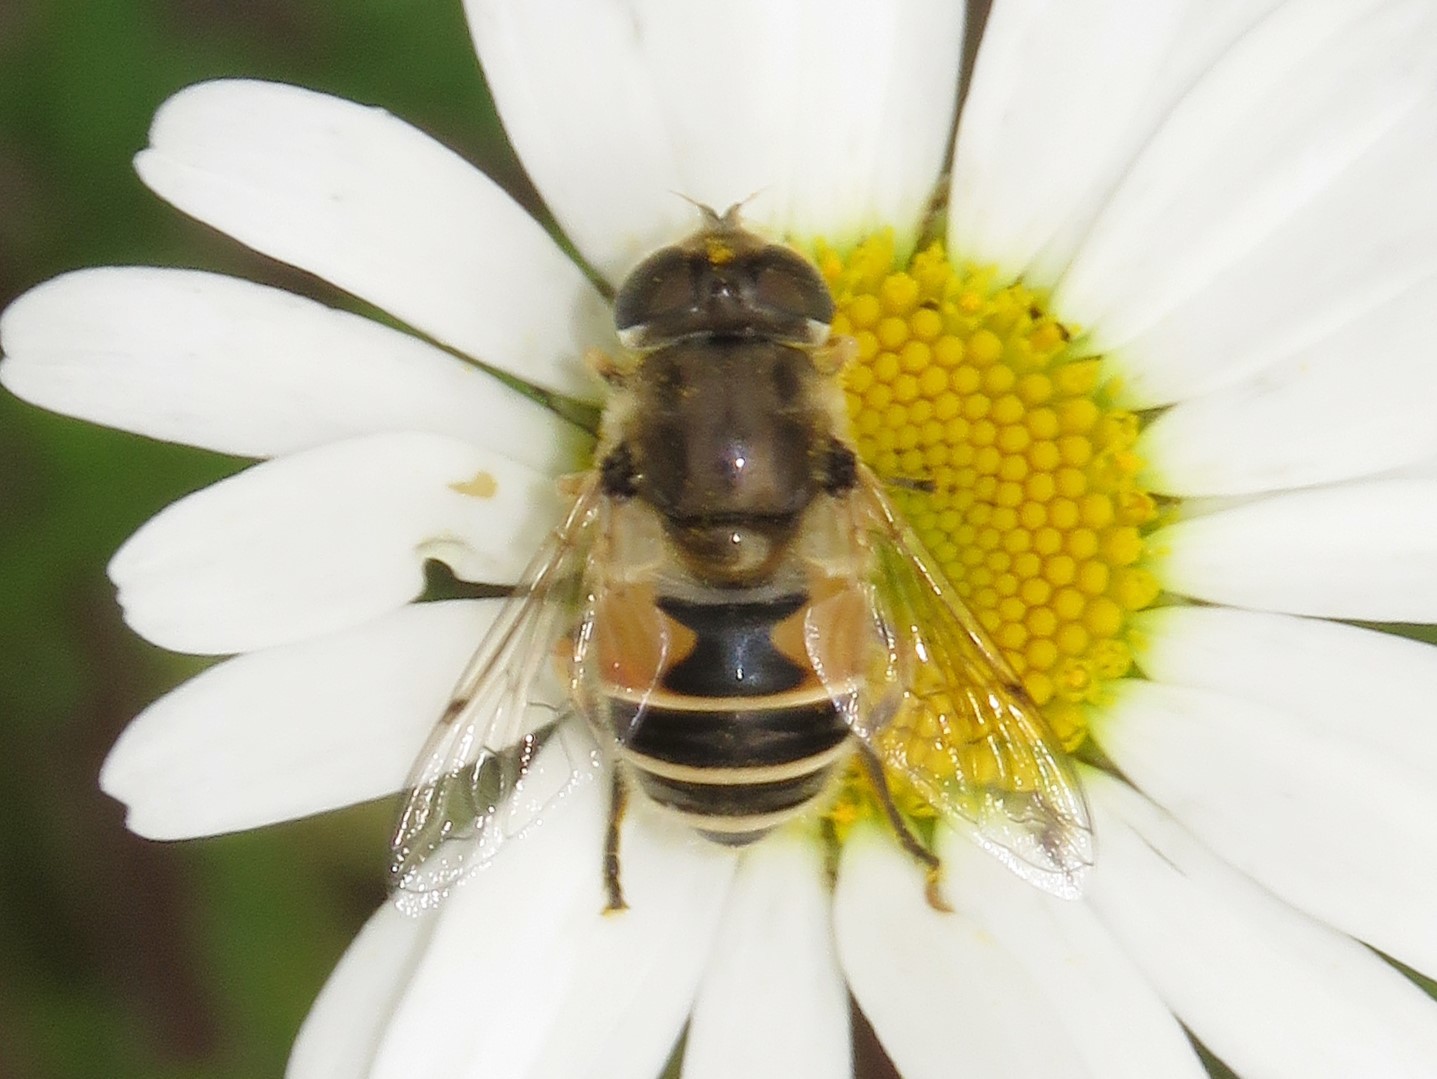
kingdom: Animalia
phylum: Arthropoda
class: Insecta
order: Diptera
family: Syrphidae
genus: Eristalis
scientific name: Eristalis arbustorum
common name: Hover fly
